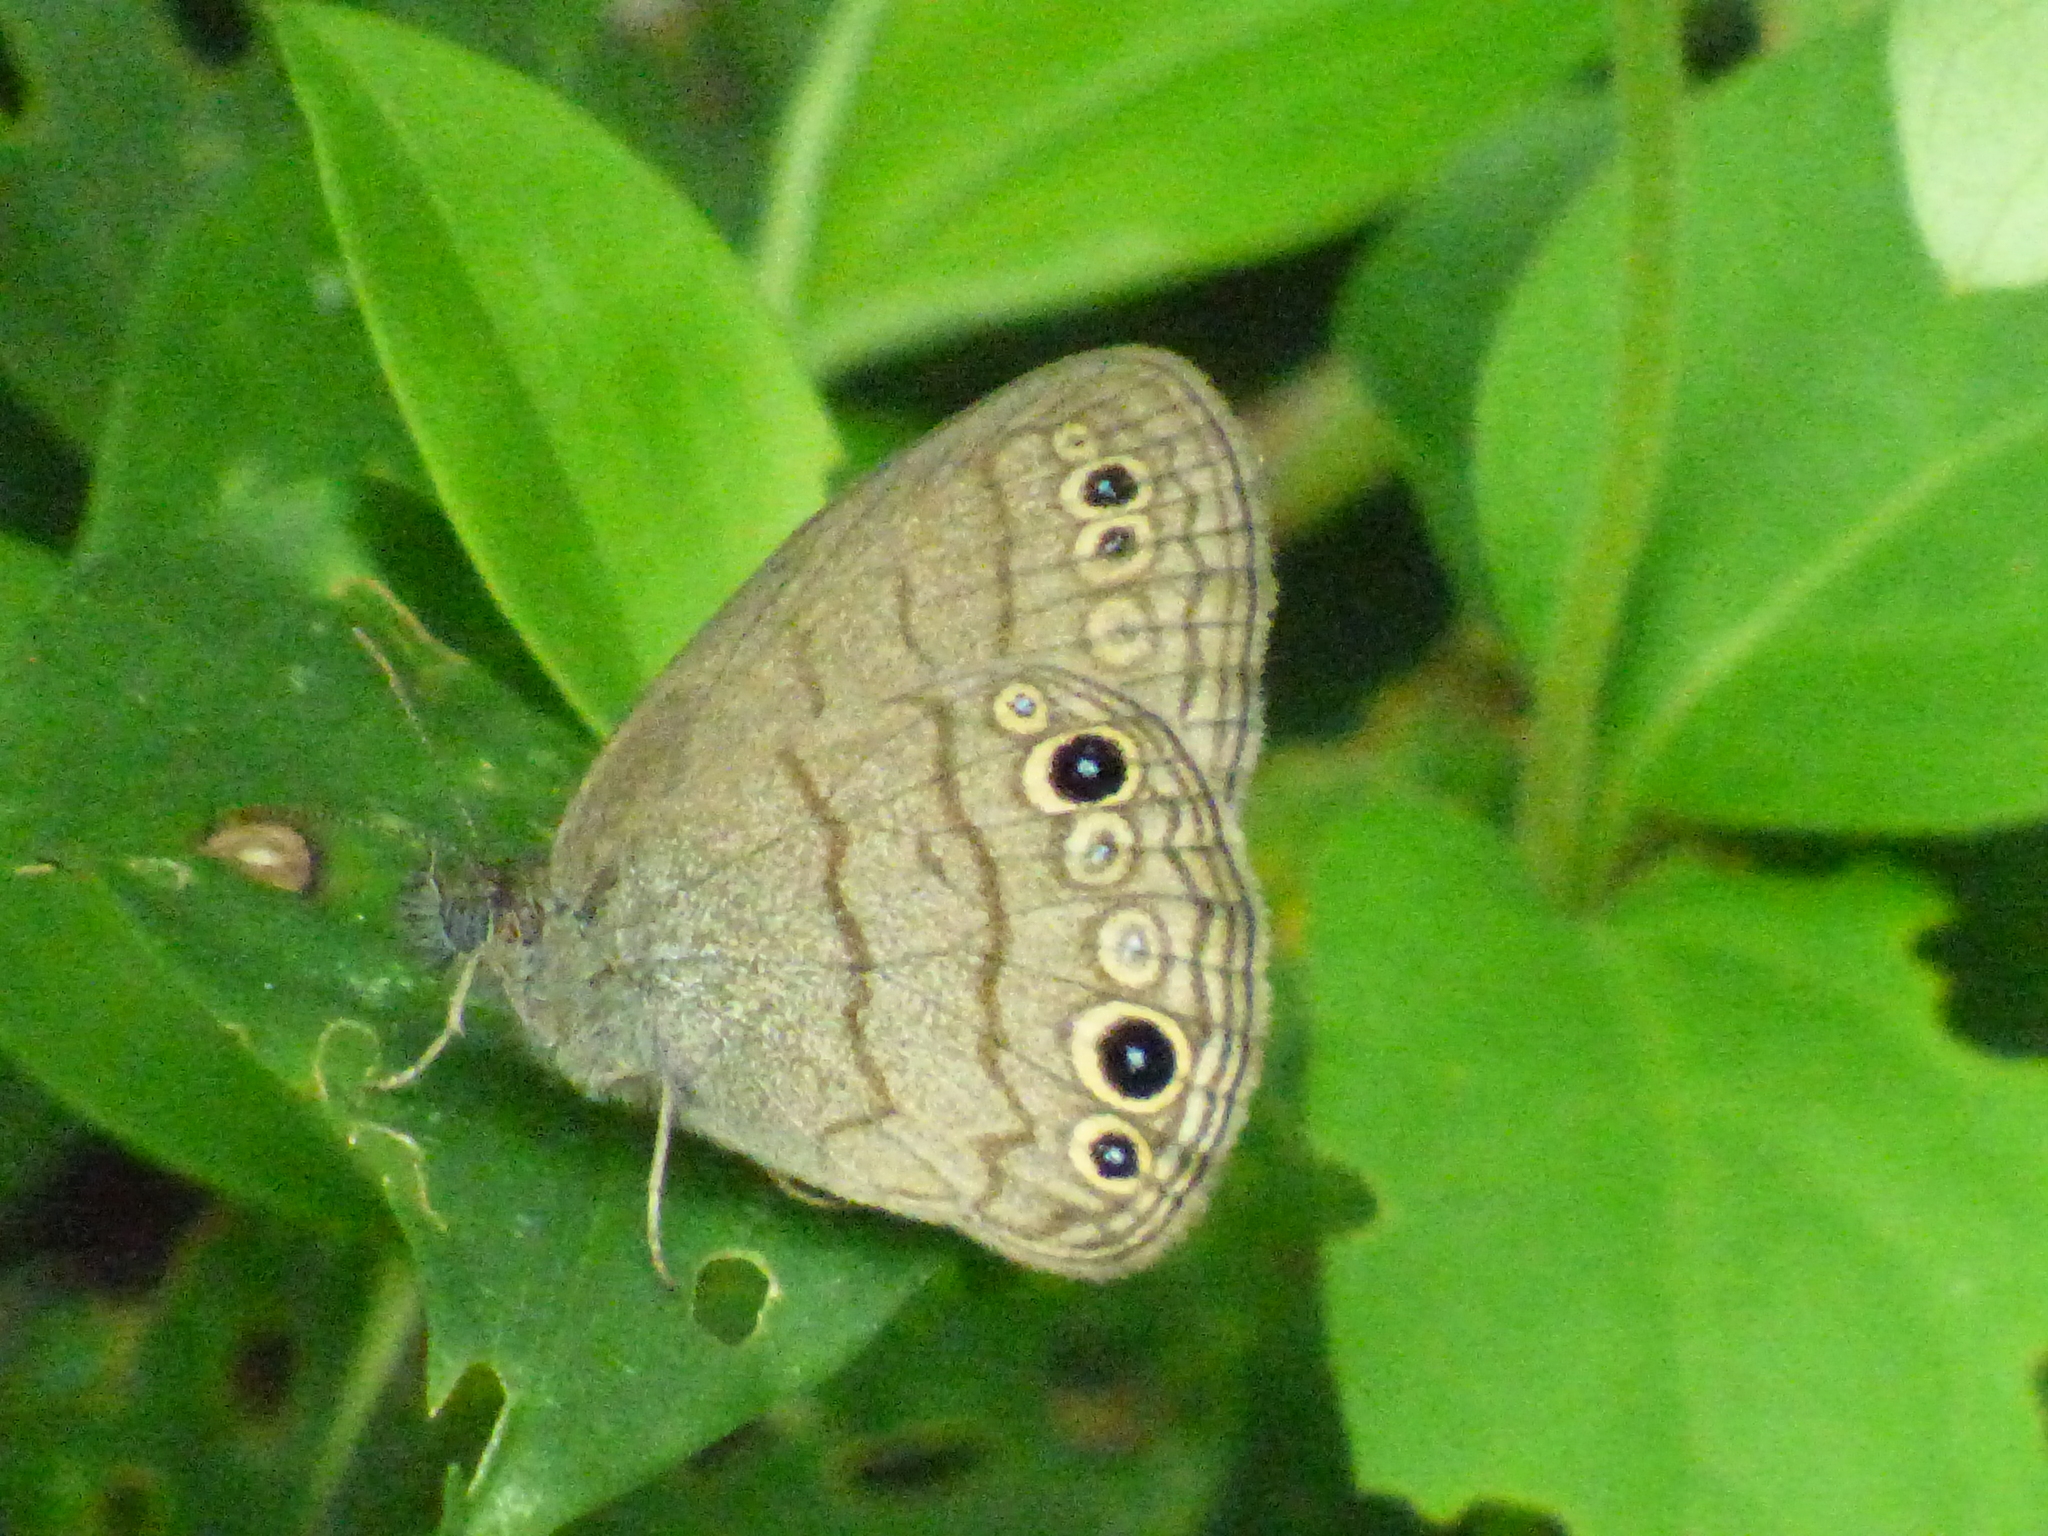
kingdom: Animalia
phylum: Arthropoda
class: Insecta
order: Lepidoptera
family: Nymphalidae
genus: Hermeuptychia
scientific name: Hermeuptychia hermes
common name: Hermes satyr
